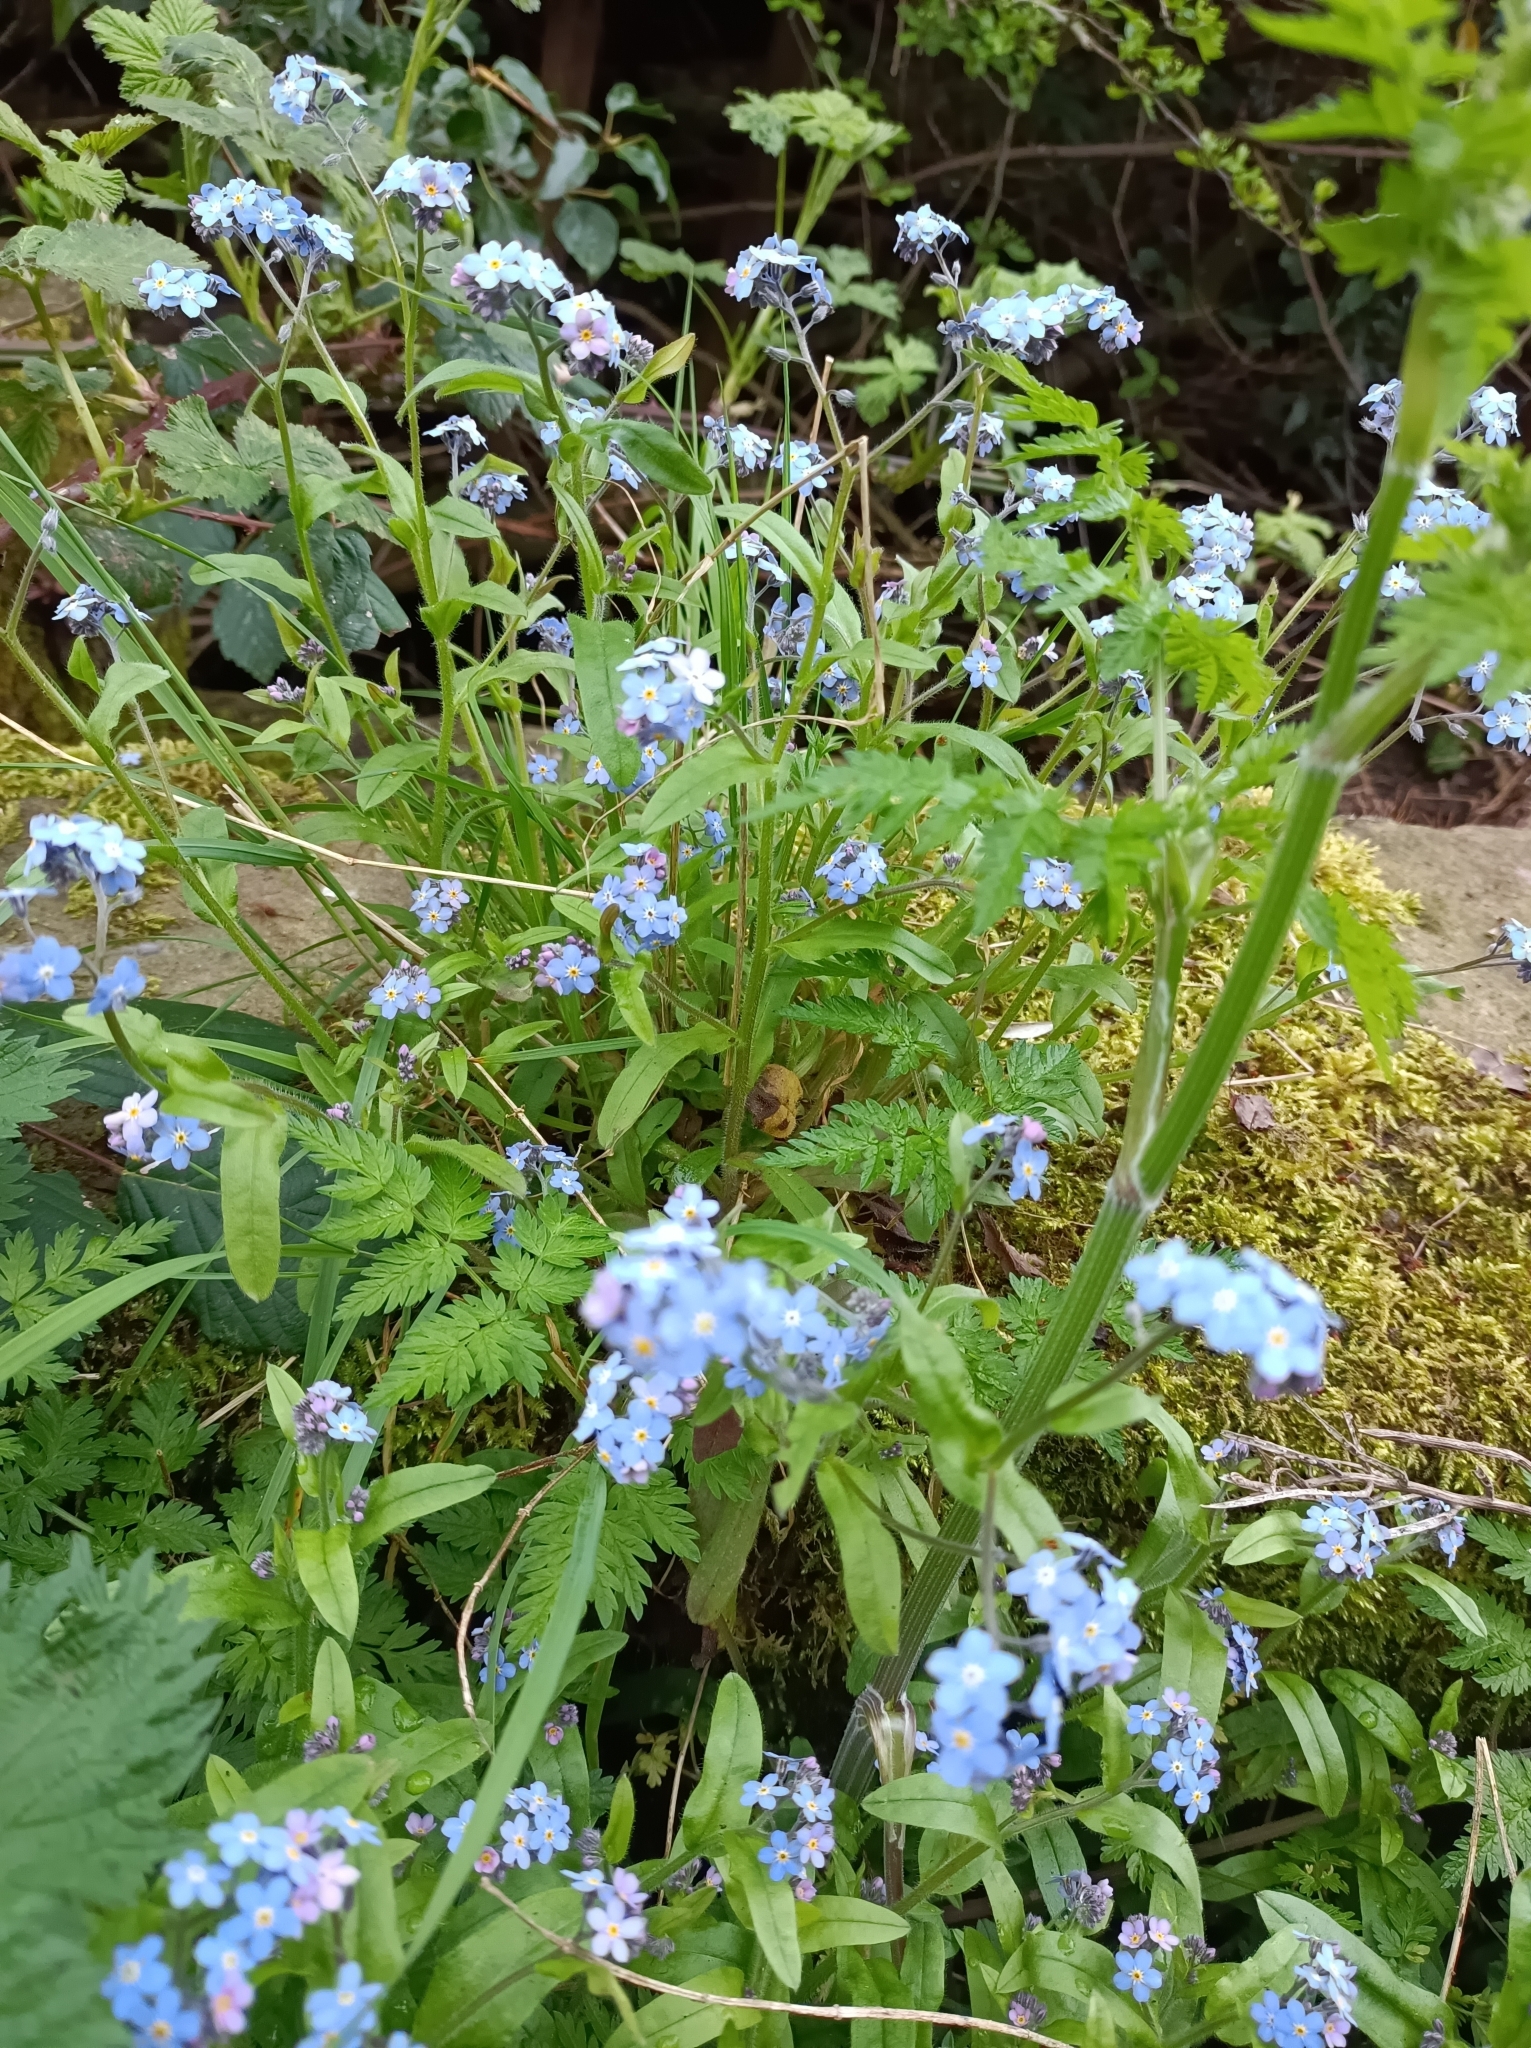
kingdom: Plantae
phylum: Tracheophyta
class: Magnoliopsida
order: Boraginales
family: Boraginaceae
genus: Myosotis
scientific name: Myosotis sylvatica
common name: Wood forget-me-not
